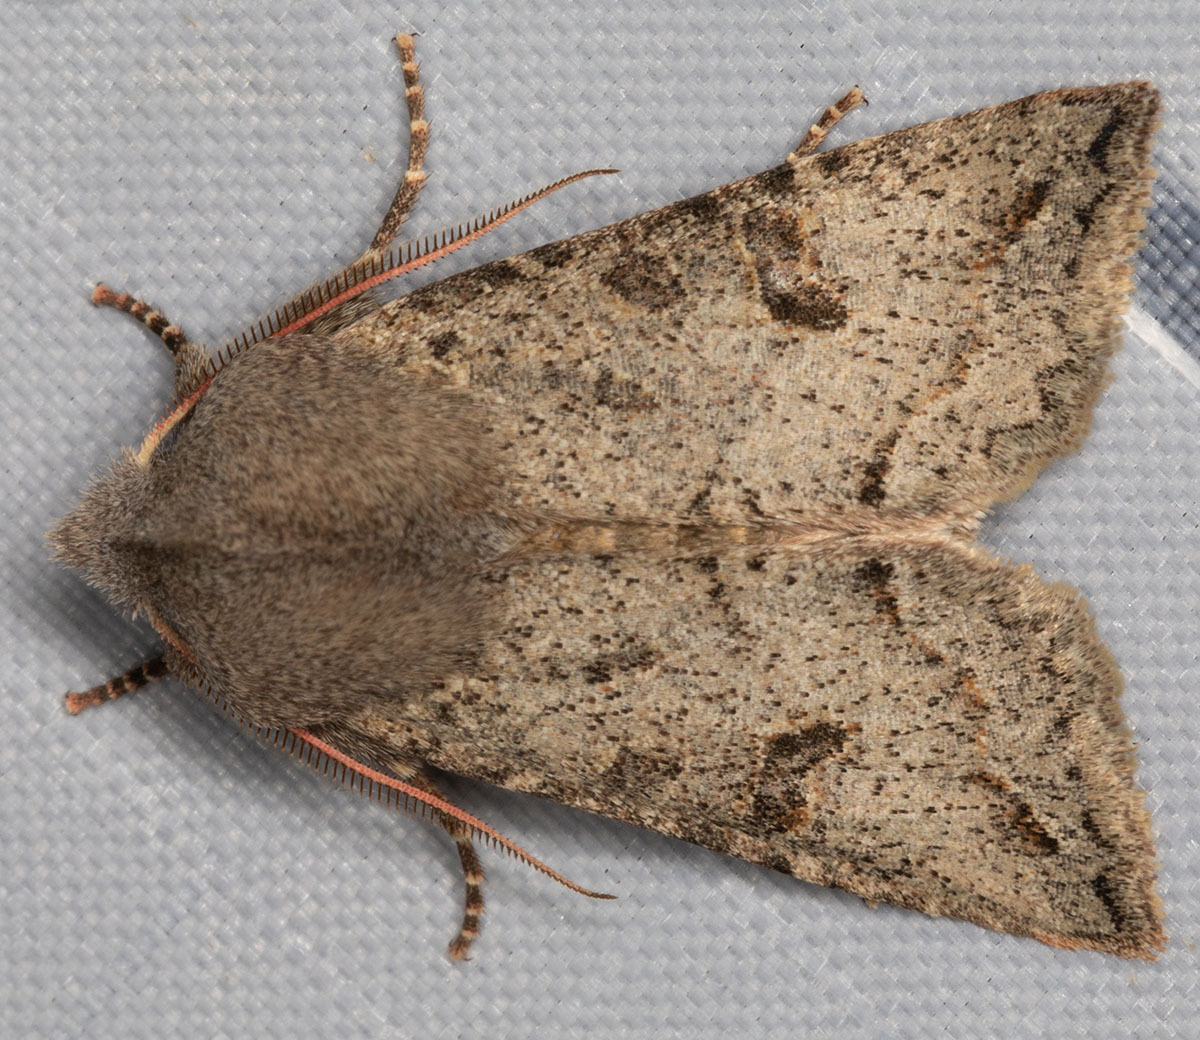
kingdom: Animalia
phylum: Arthropoda
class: Insecta
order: Lepidoptera
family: Noctuidae
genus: Orthosia
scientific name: Orthosia erythrolita
